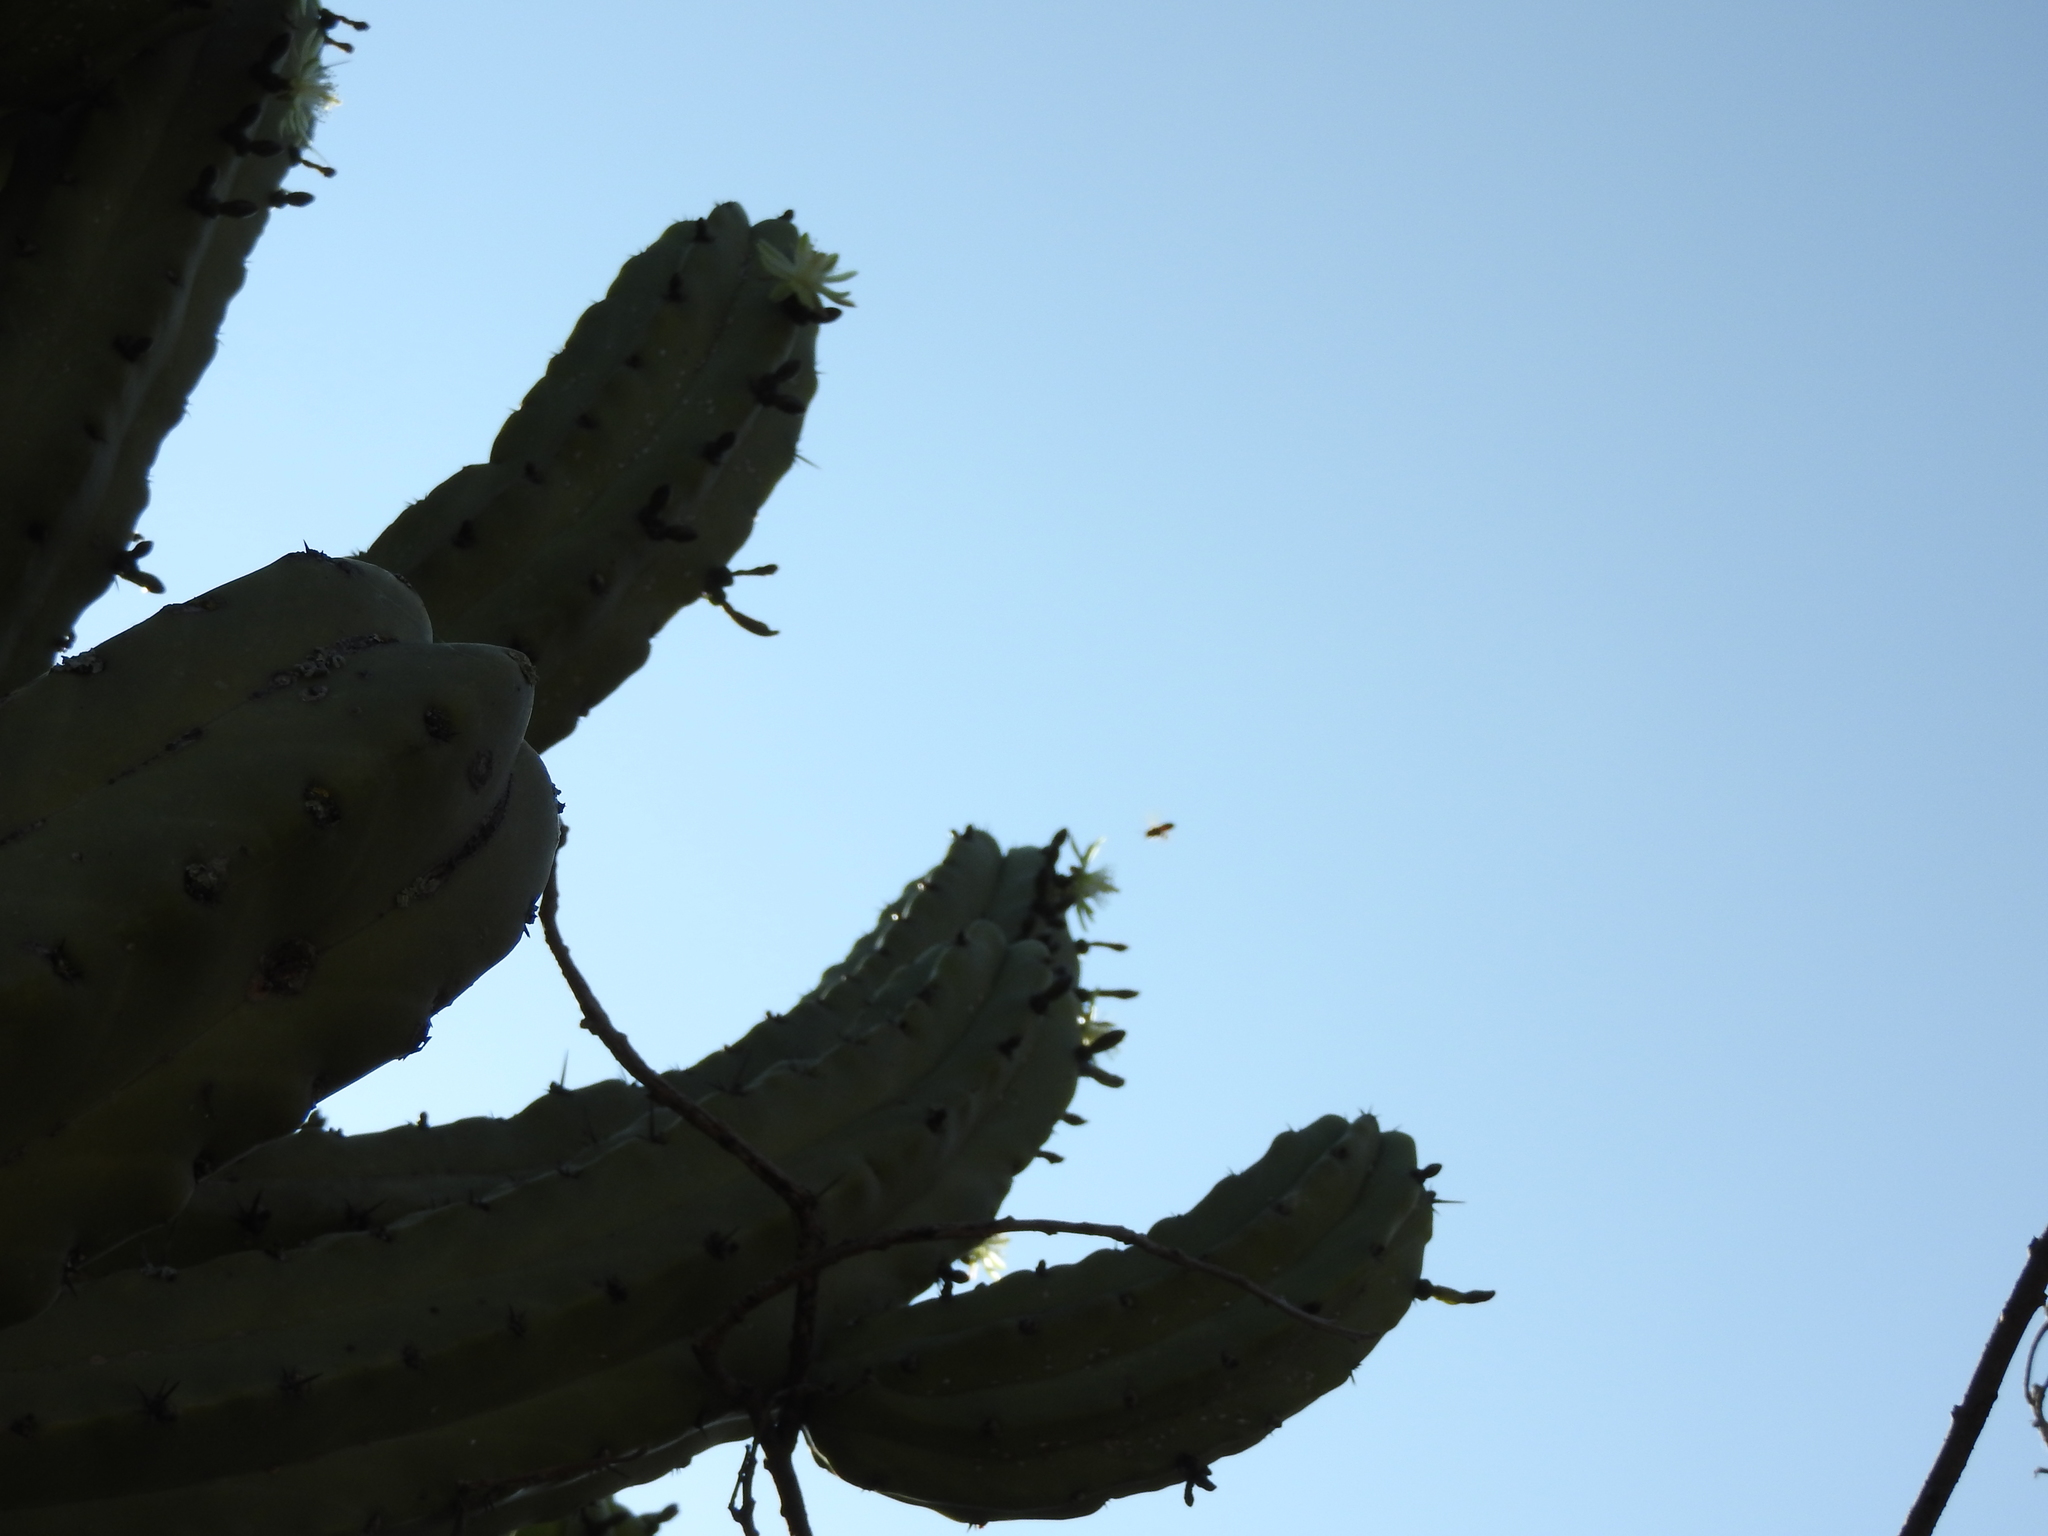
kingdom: Animalia
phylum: Arthropoda
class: Insecta
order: Hymenoptera
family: Apidae
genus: Apis
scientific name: Apis mellifera
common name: Honey bee
